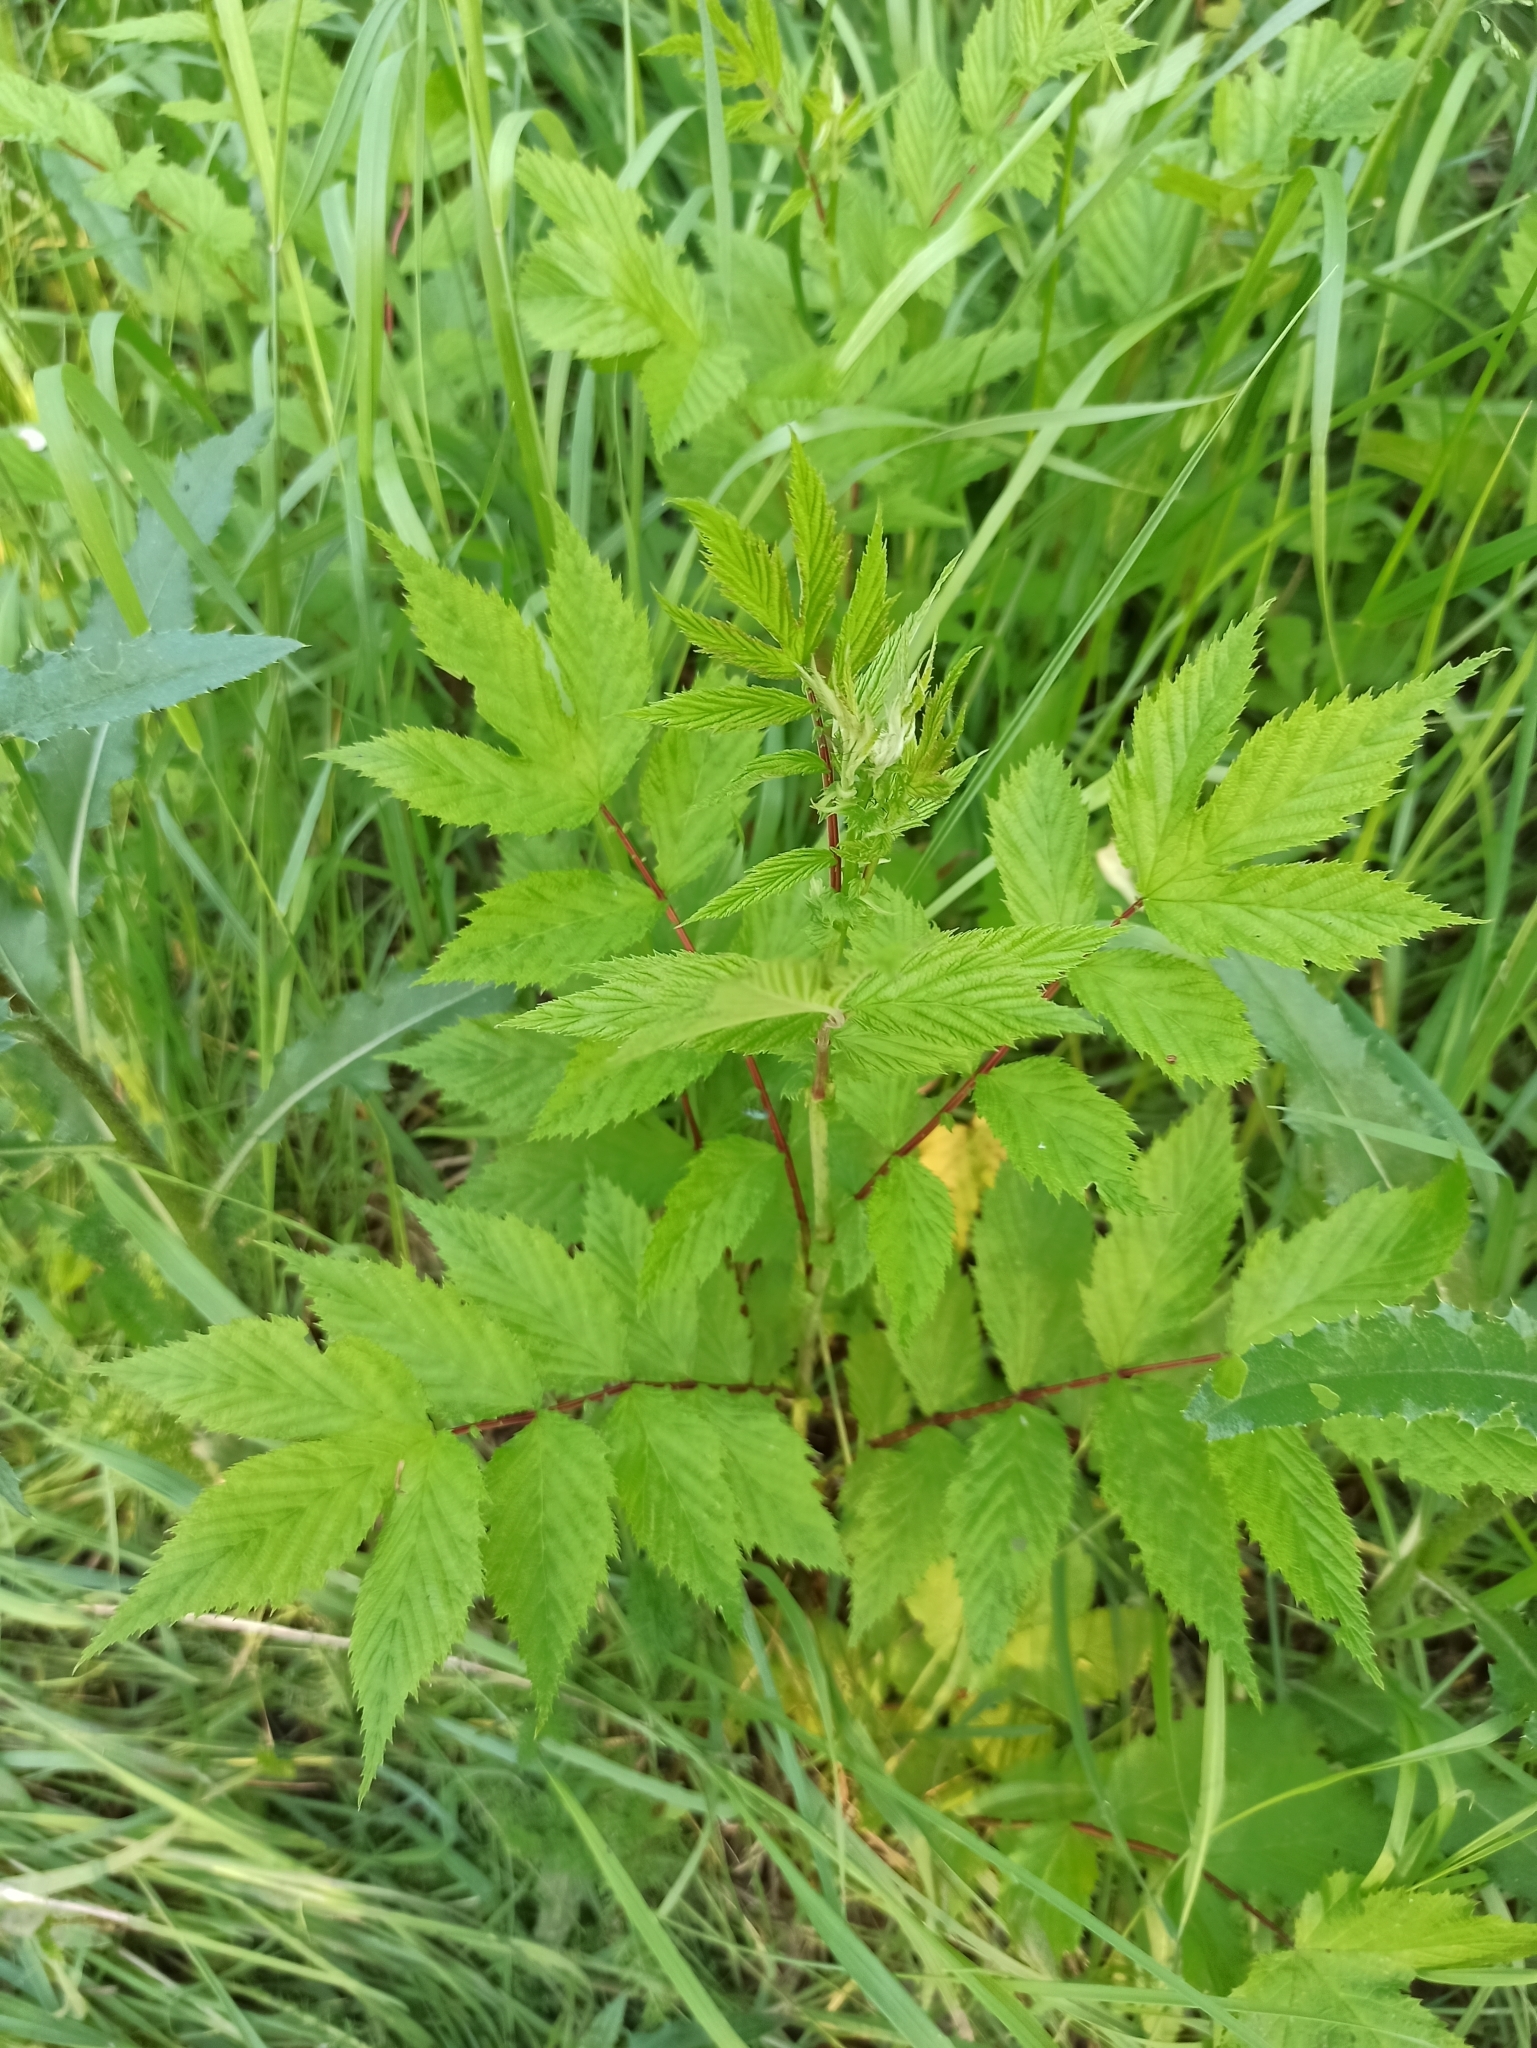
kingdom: Plantae
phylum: Tracheophyta
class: Magnoliopsida
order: Rosales
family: Rosaceae
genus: Filipendula
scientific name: Filipendula ulmaria
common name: Meadowsweet
